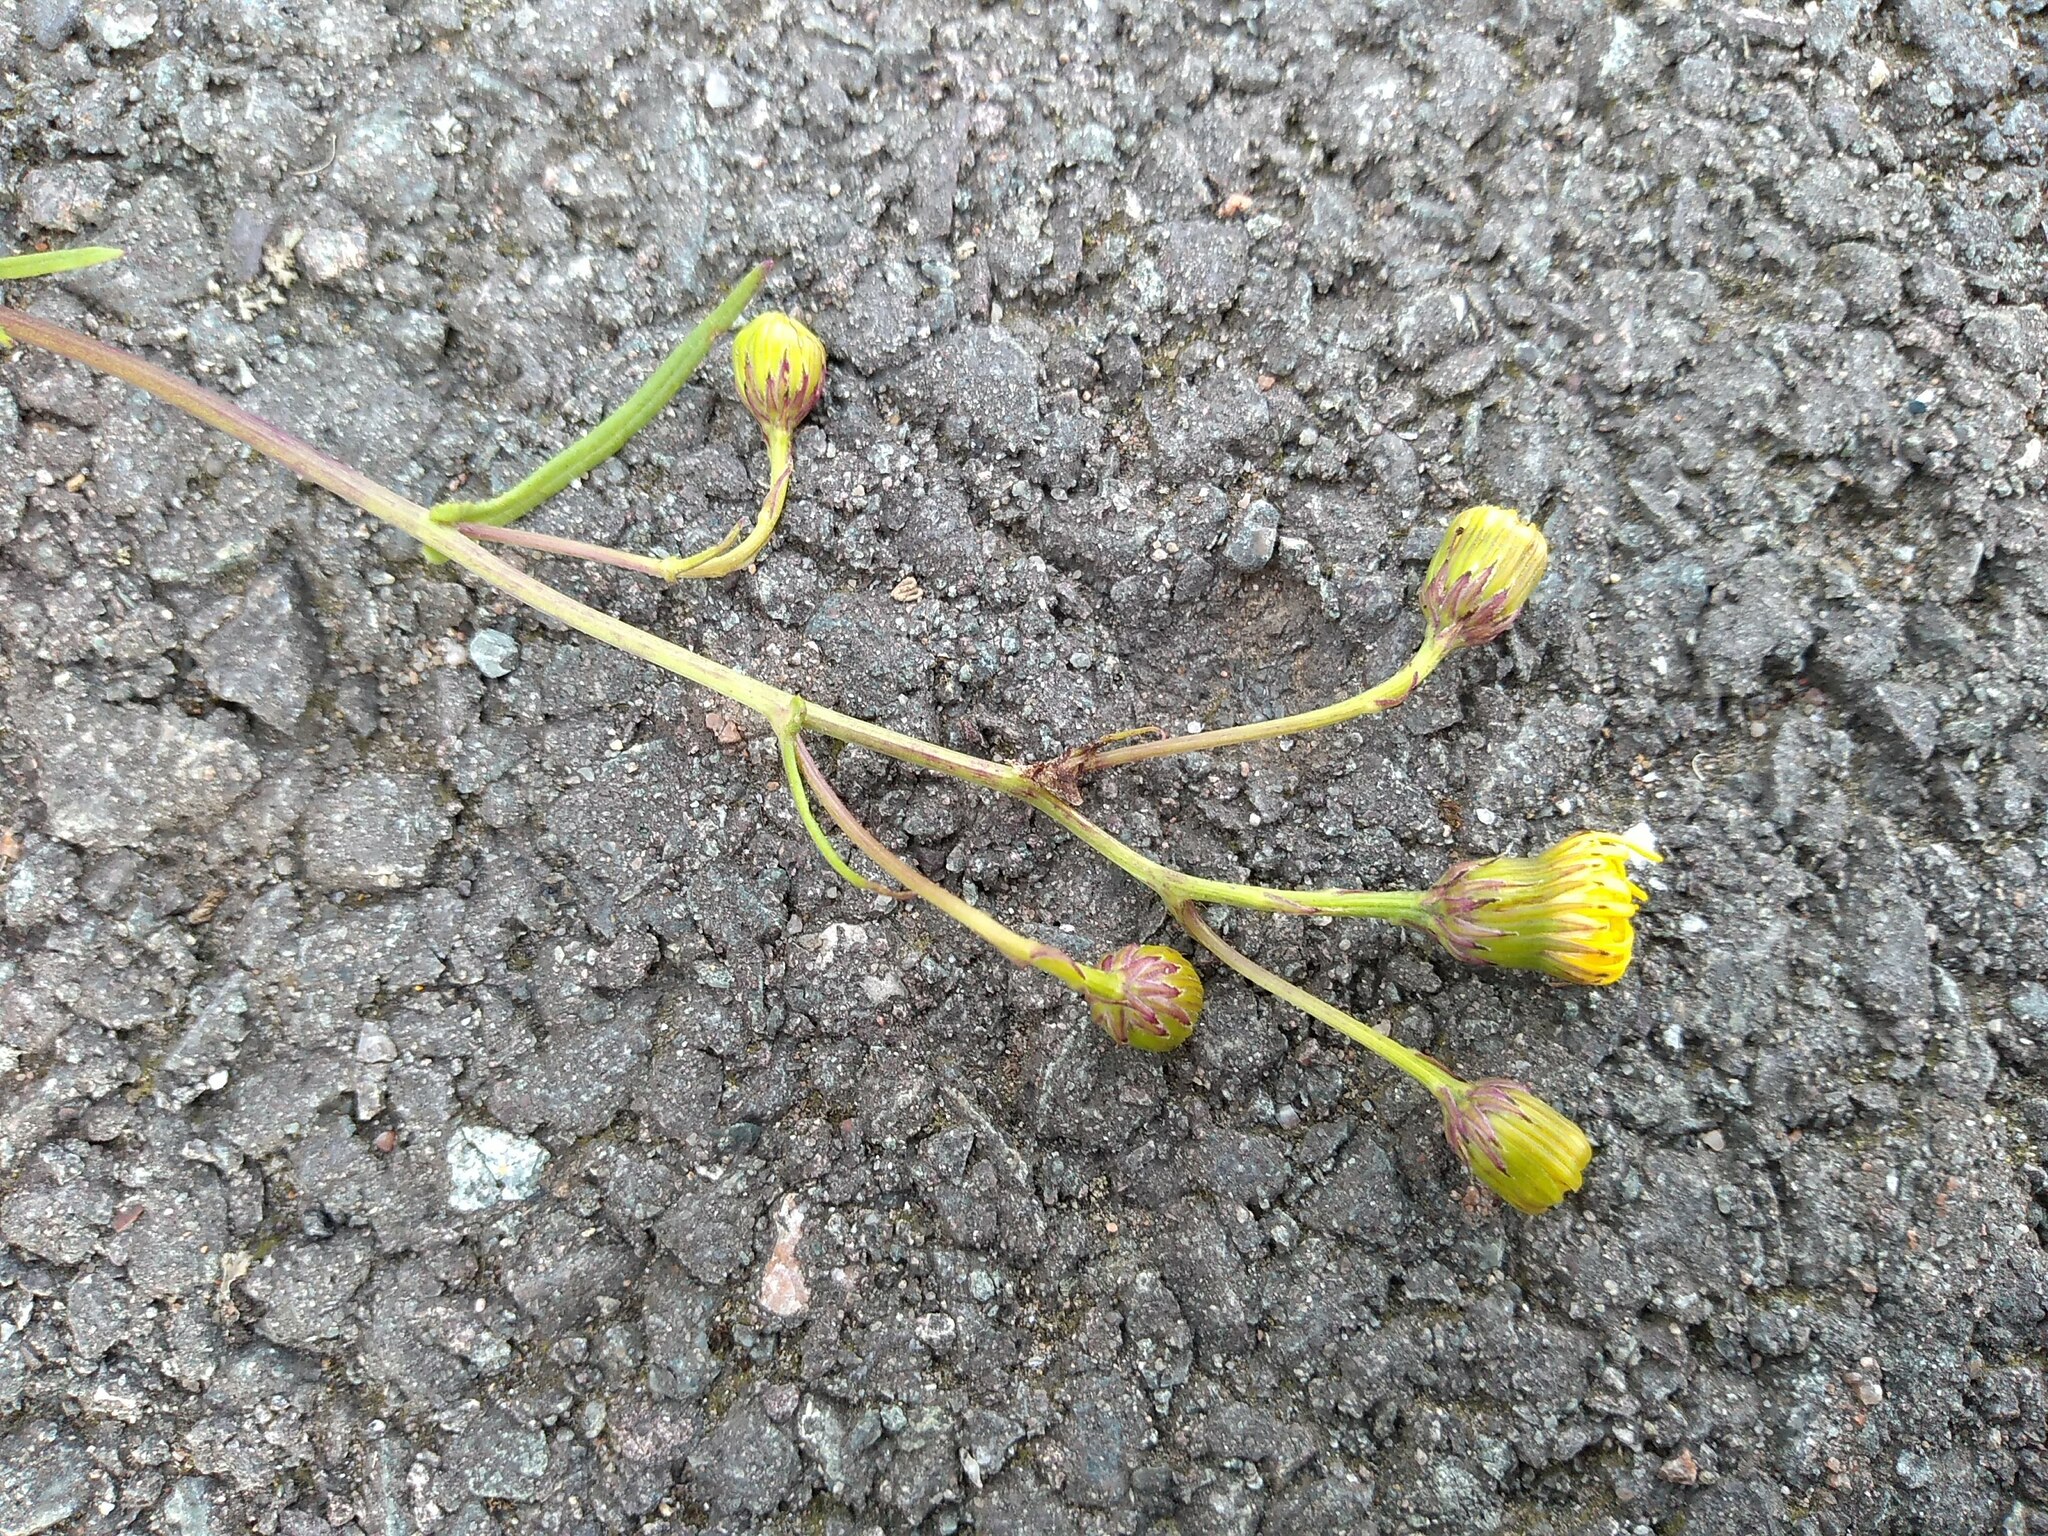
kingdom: Plantae
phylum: Tracheophyta
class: Magnoliopsida
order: Asterales
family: Asteraceae
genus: Senecio
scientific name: Senecio inaequidens
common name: Narrow-leaved ragwort
